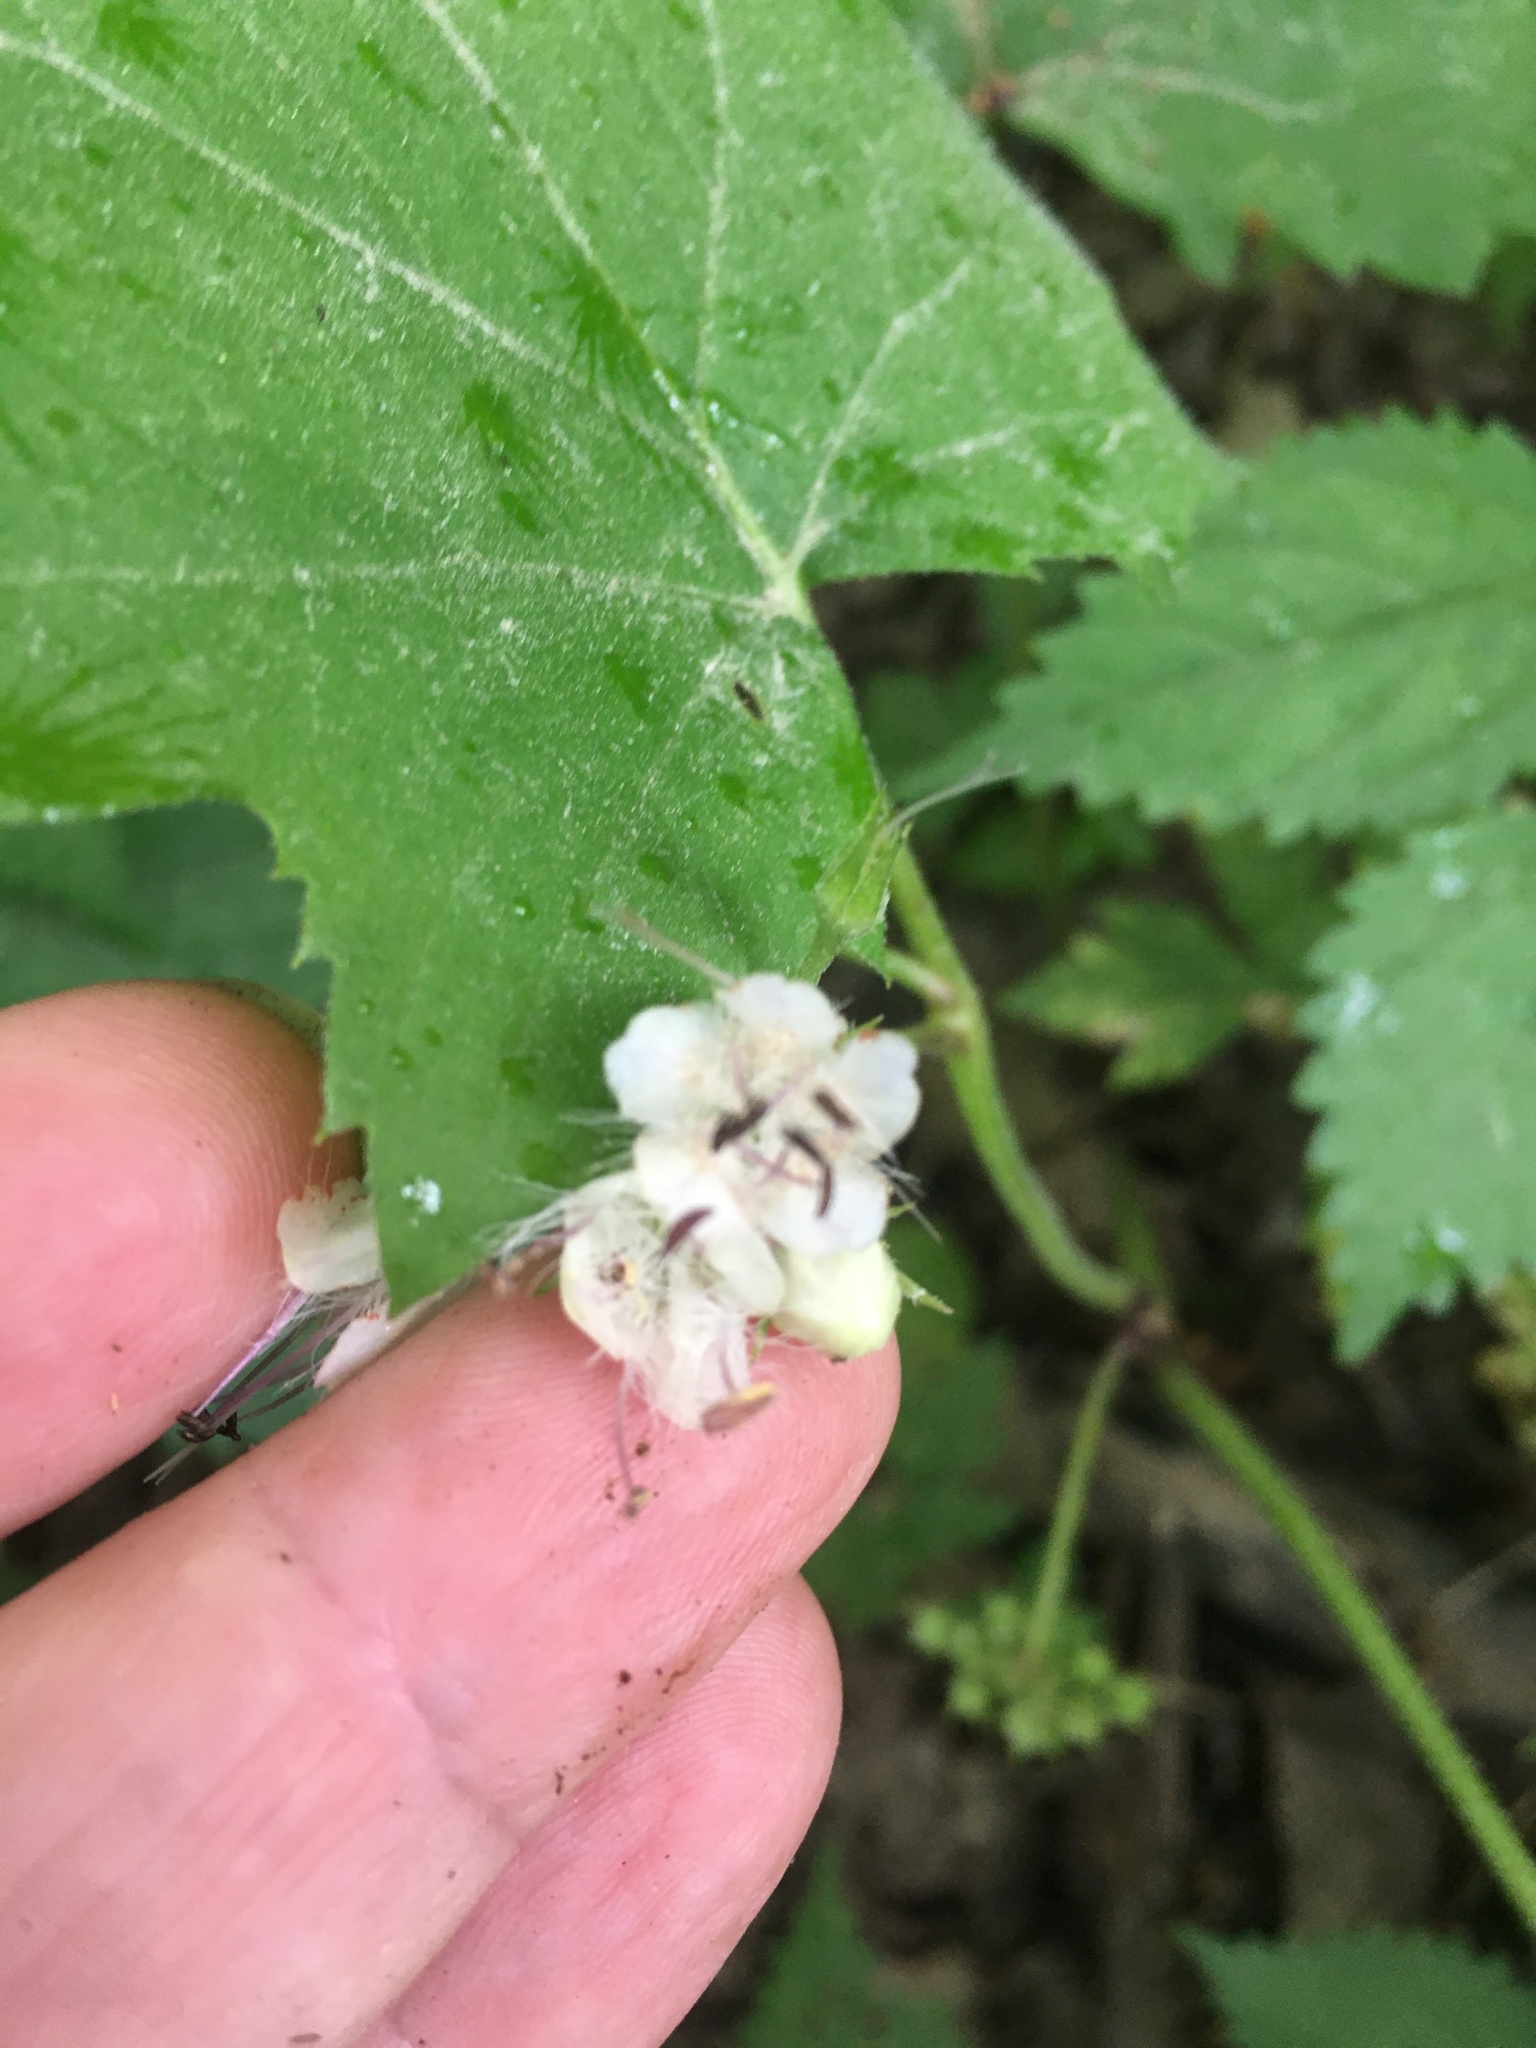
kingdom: Plantae
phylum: Tracheophyta
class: Magnoliopsida
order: Boraginales
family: Hydrophyllaceae
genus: Hydrophyllum
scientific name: Hydrophyllum canadense
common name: Canada waterleaf
